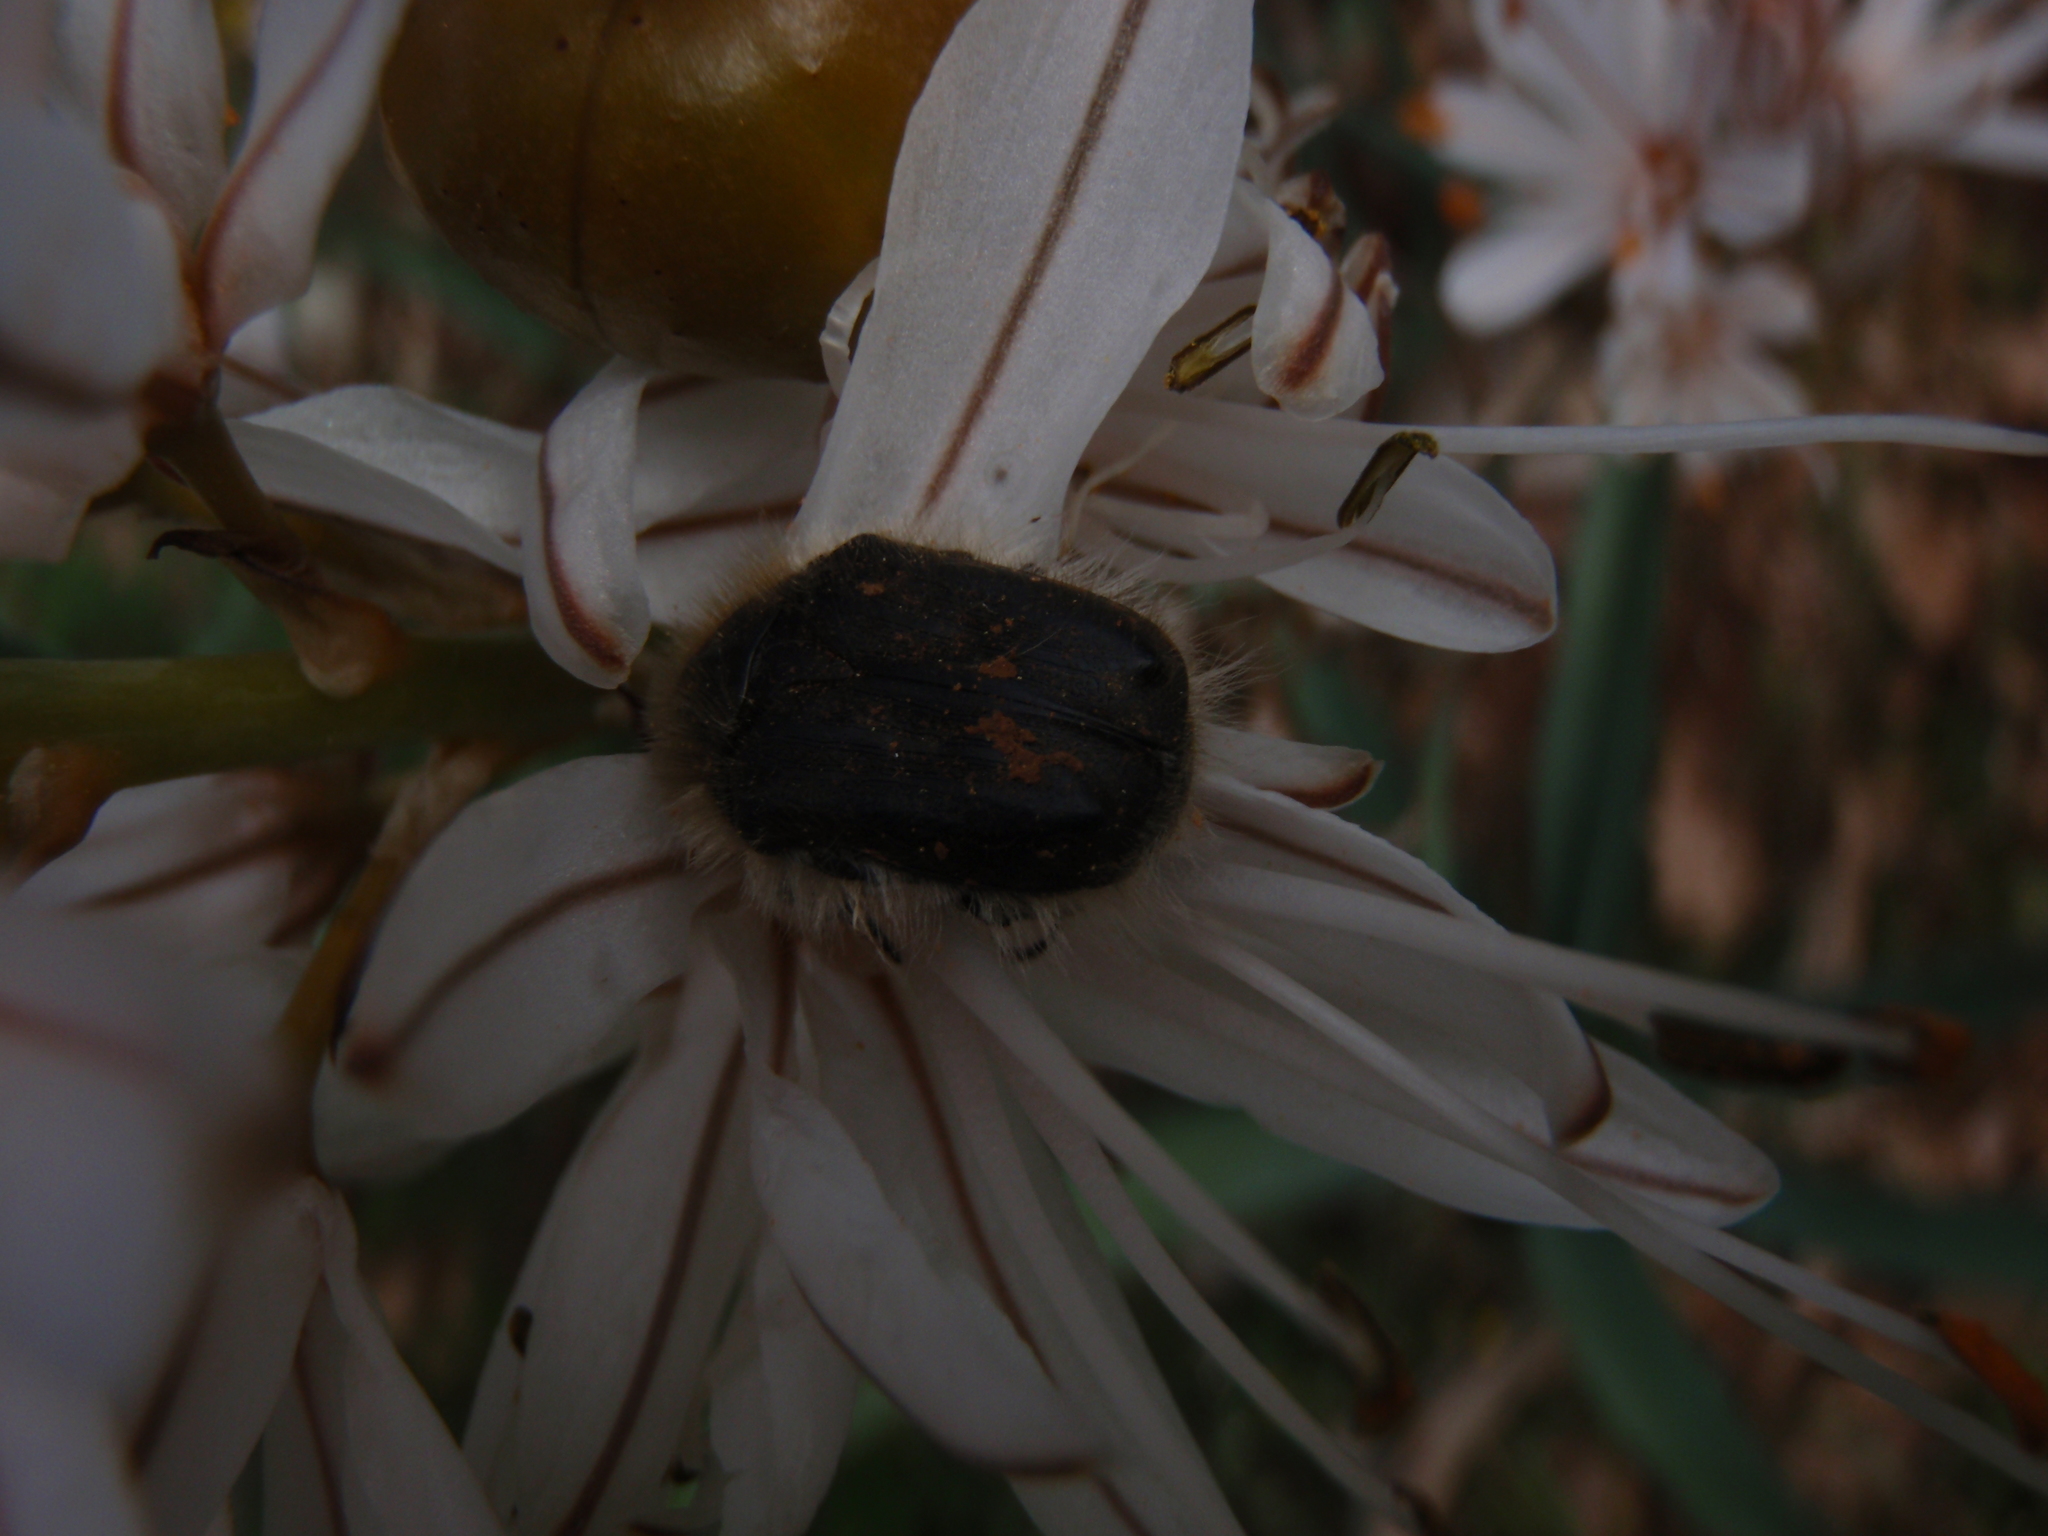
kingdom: Animalia
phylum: Arthropoda
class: Insecta
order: Coleoptera
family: Scarabaeidae
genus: Tropinota
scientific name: Tropinota hirta
